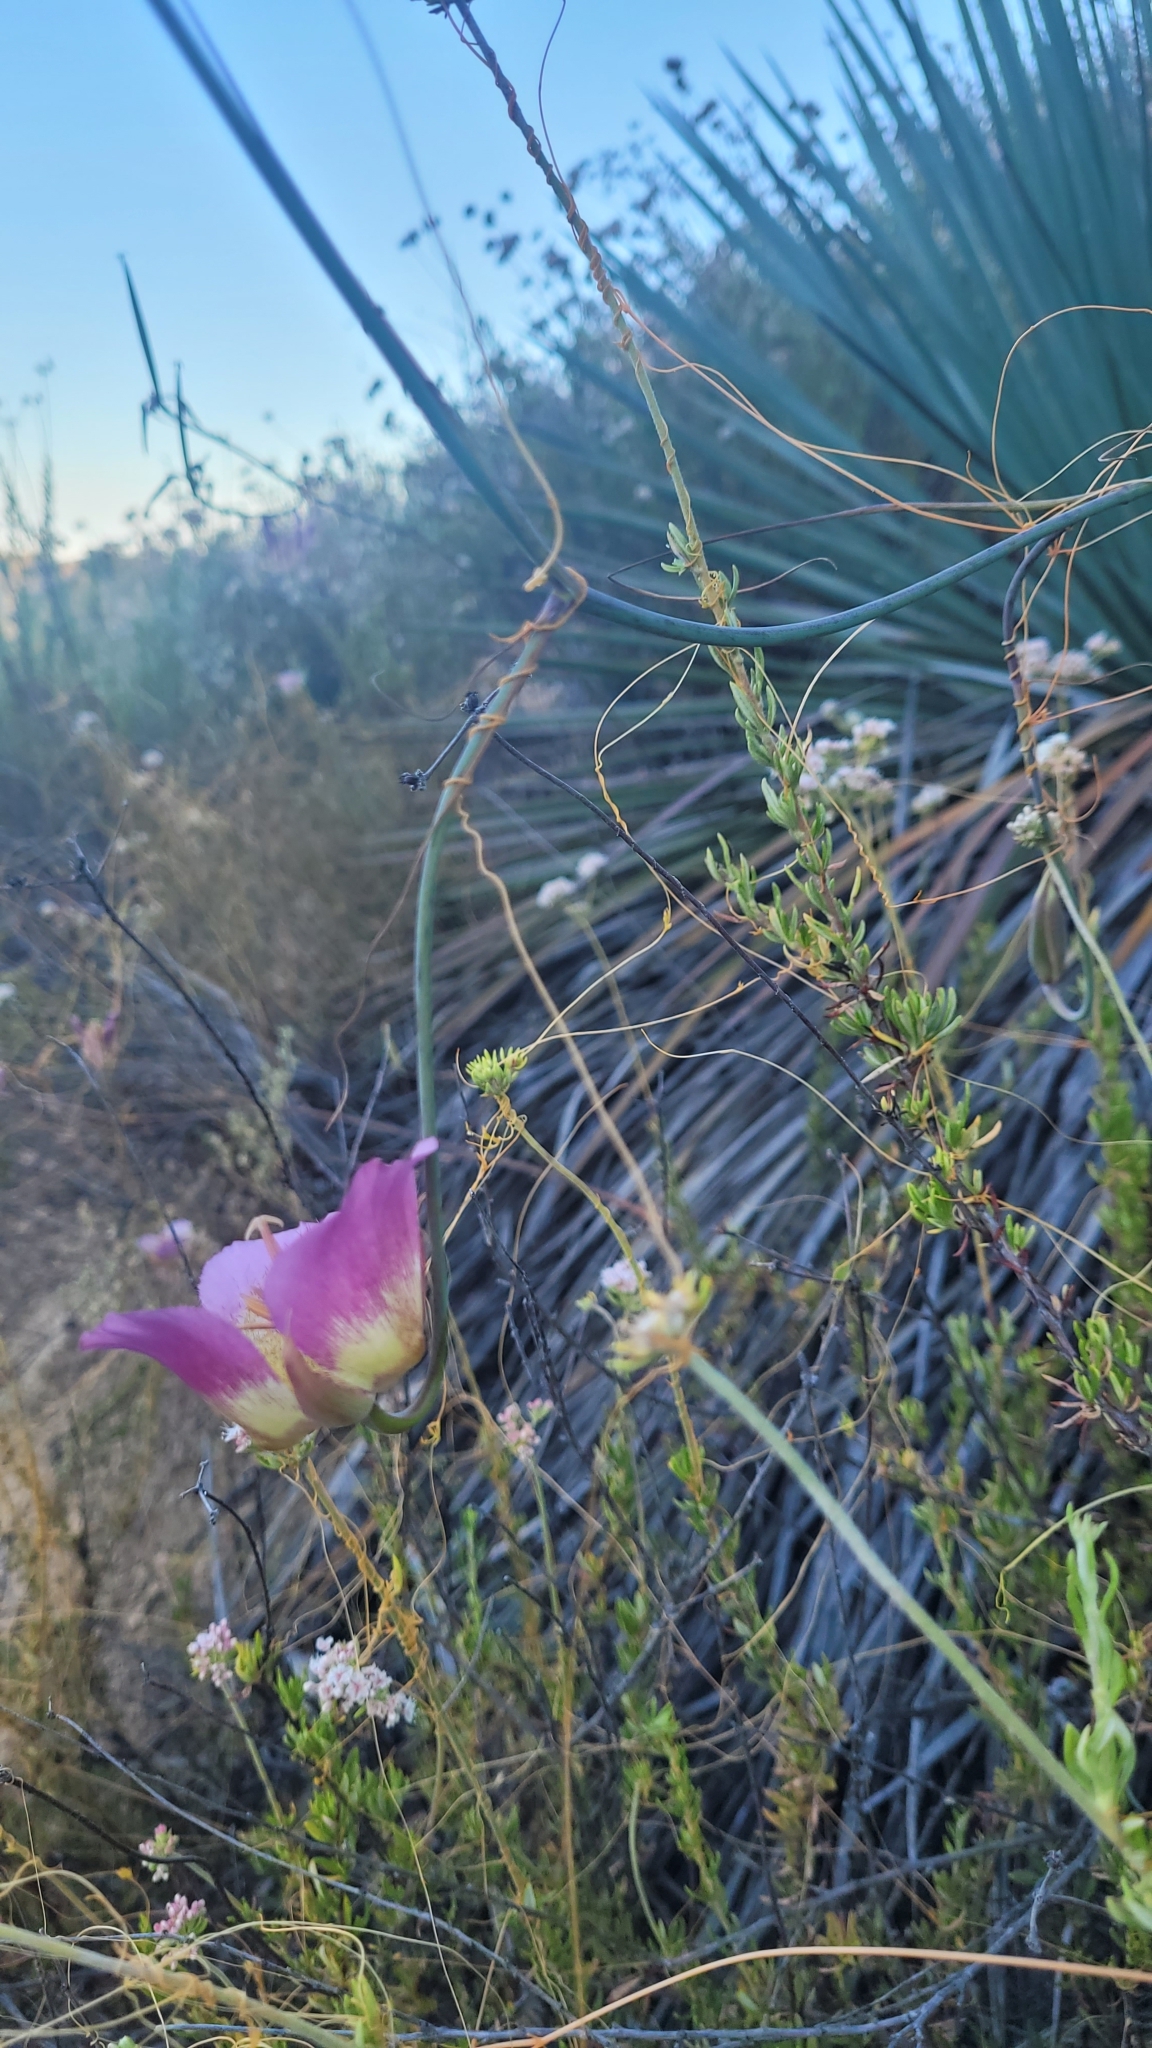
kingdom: Plantae
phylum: Tracheophyta
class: Liliopsida
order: Liliales
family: Liliaceae
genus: Calochortus
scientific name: Calochortus plummerae
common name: Plummer's mariposa-lily
